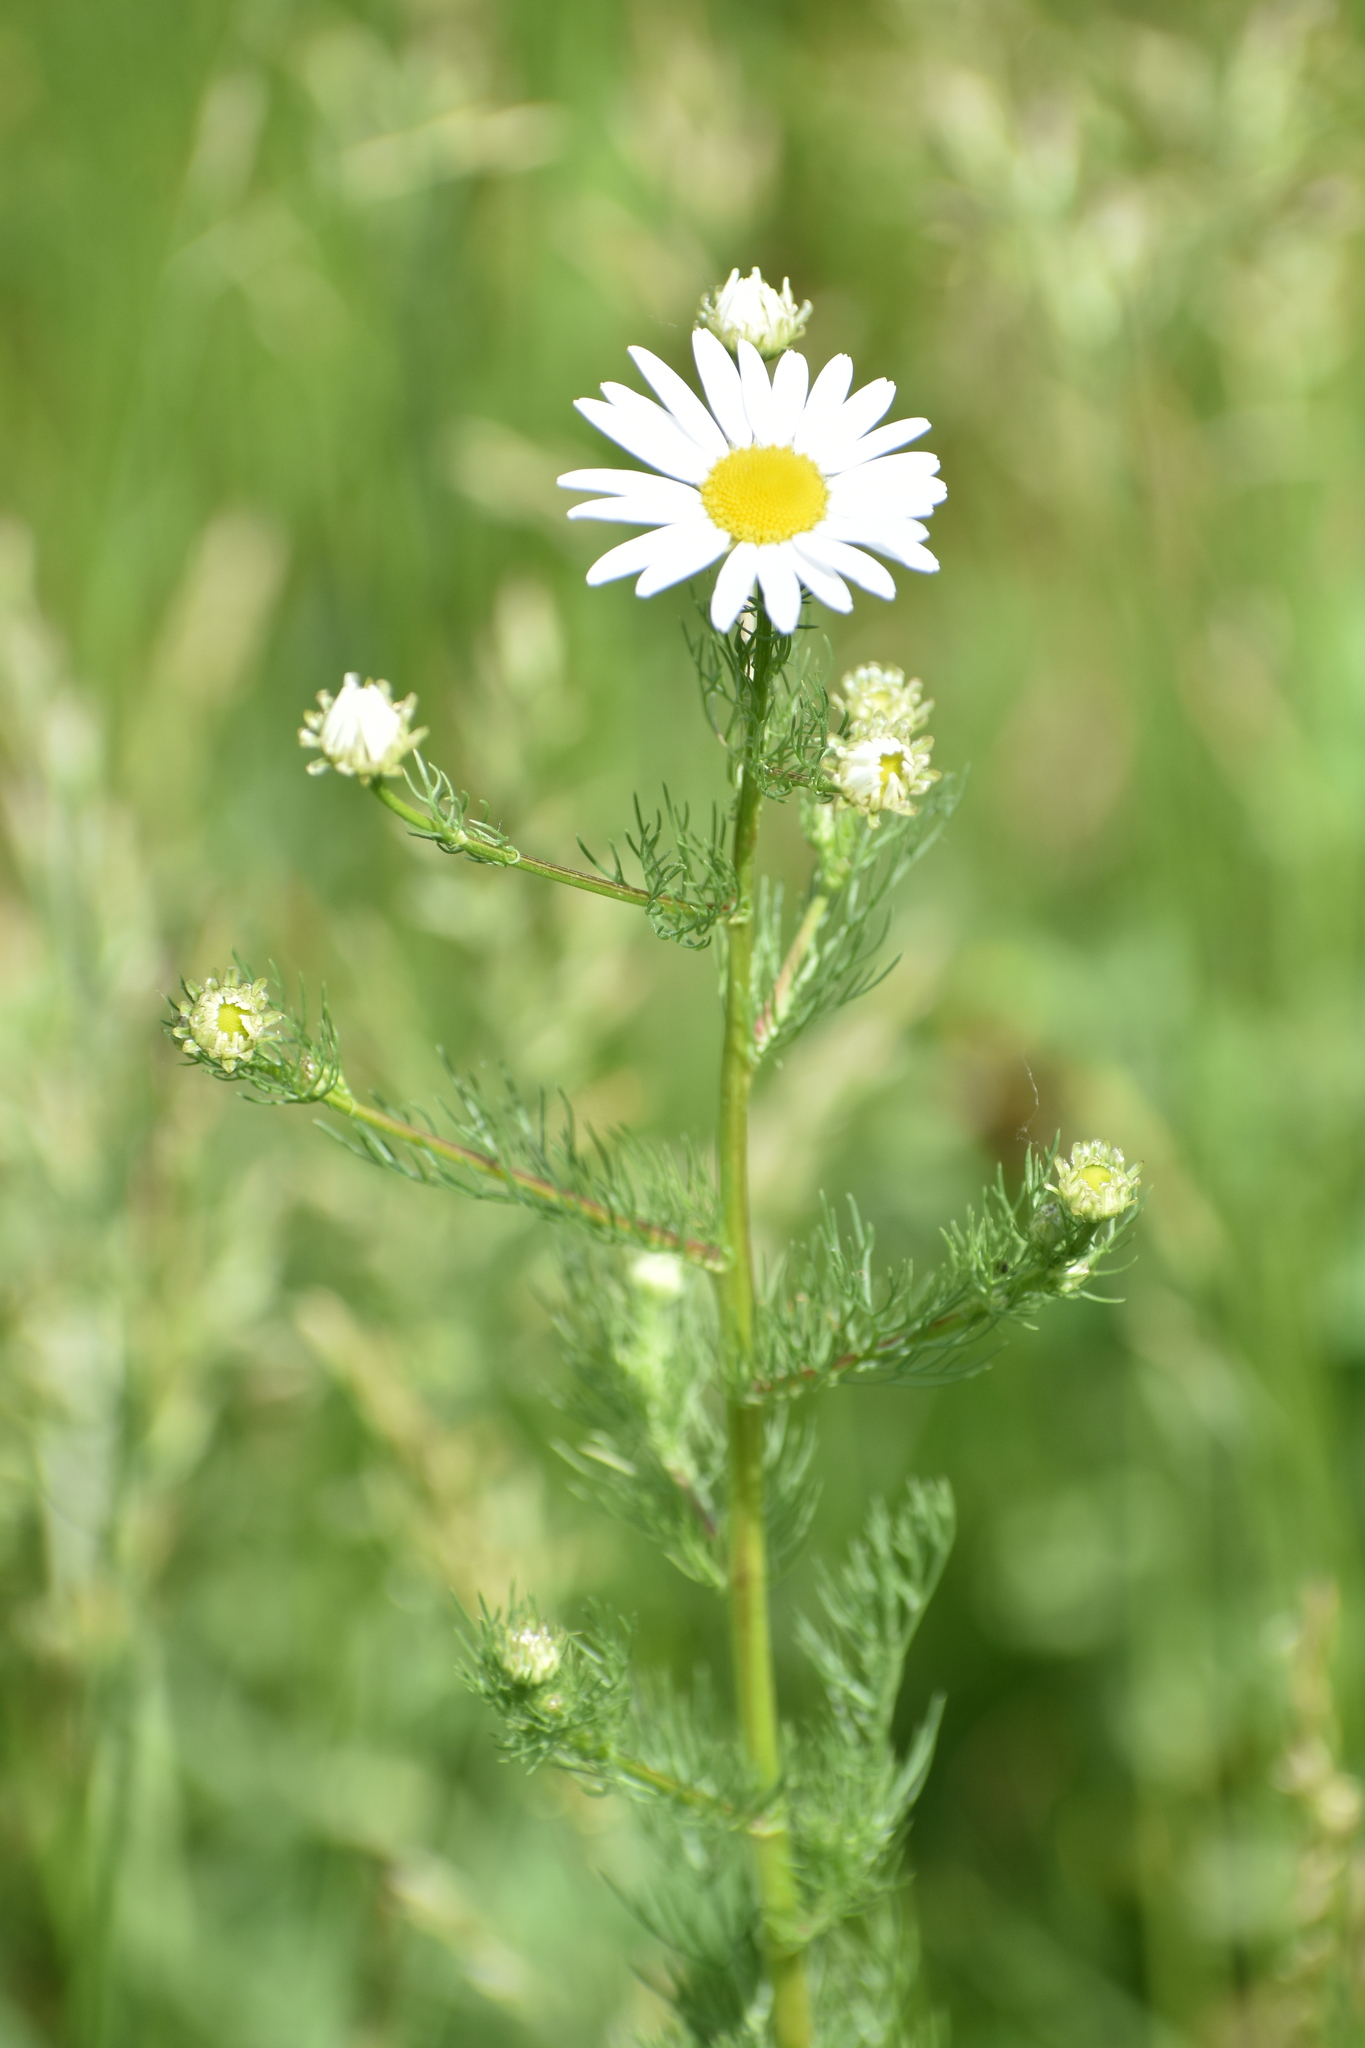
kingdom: Plantae
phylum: Tracheophyta
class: Magnoliopsida
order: Asterales
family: Asteraceae
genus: Tripleurospermum
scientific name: Tripleurospermum inodorum
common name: Scentless mayweed
